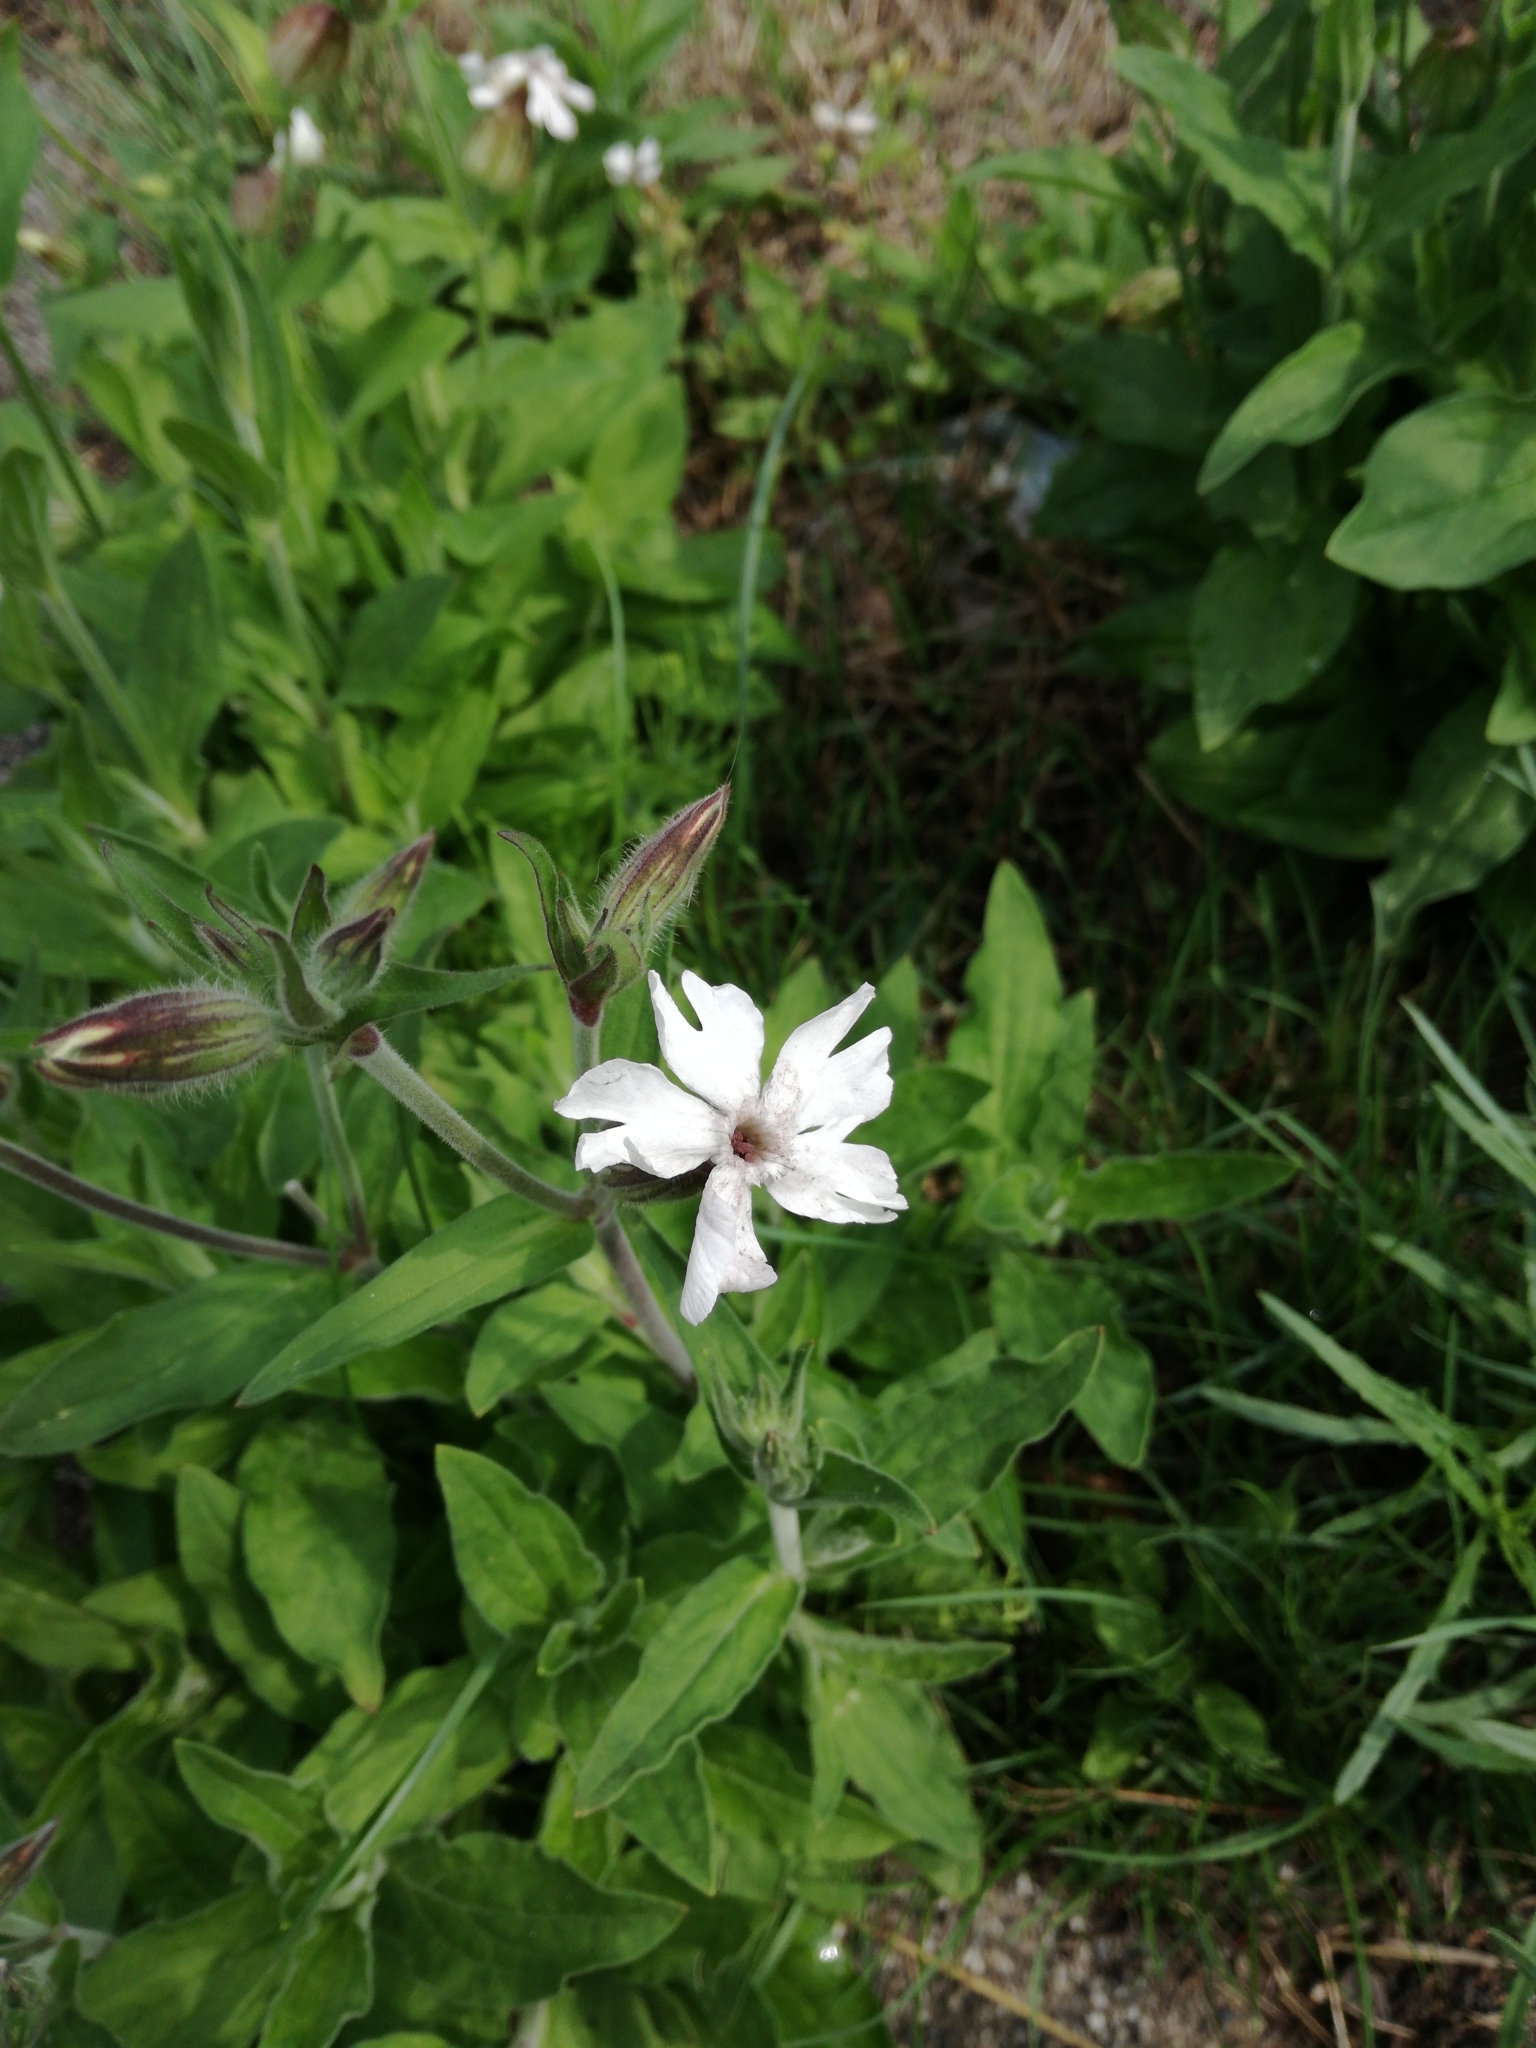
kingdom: Plantae
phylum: Tracheophyta
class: Magnoliopsida
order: Caryophyllales
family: Caryophyllaceae
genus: Silene
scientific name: Silene latifolia
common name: White campion
